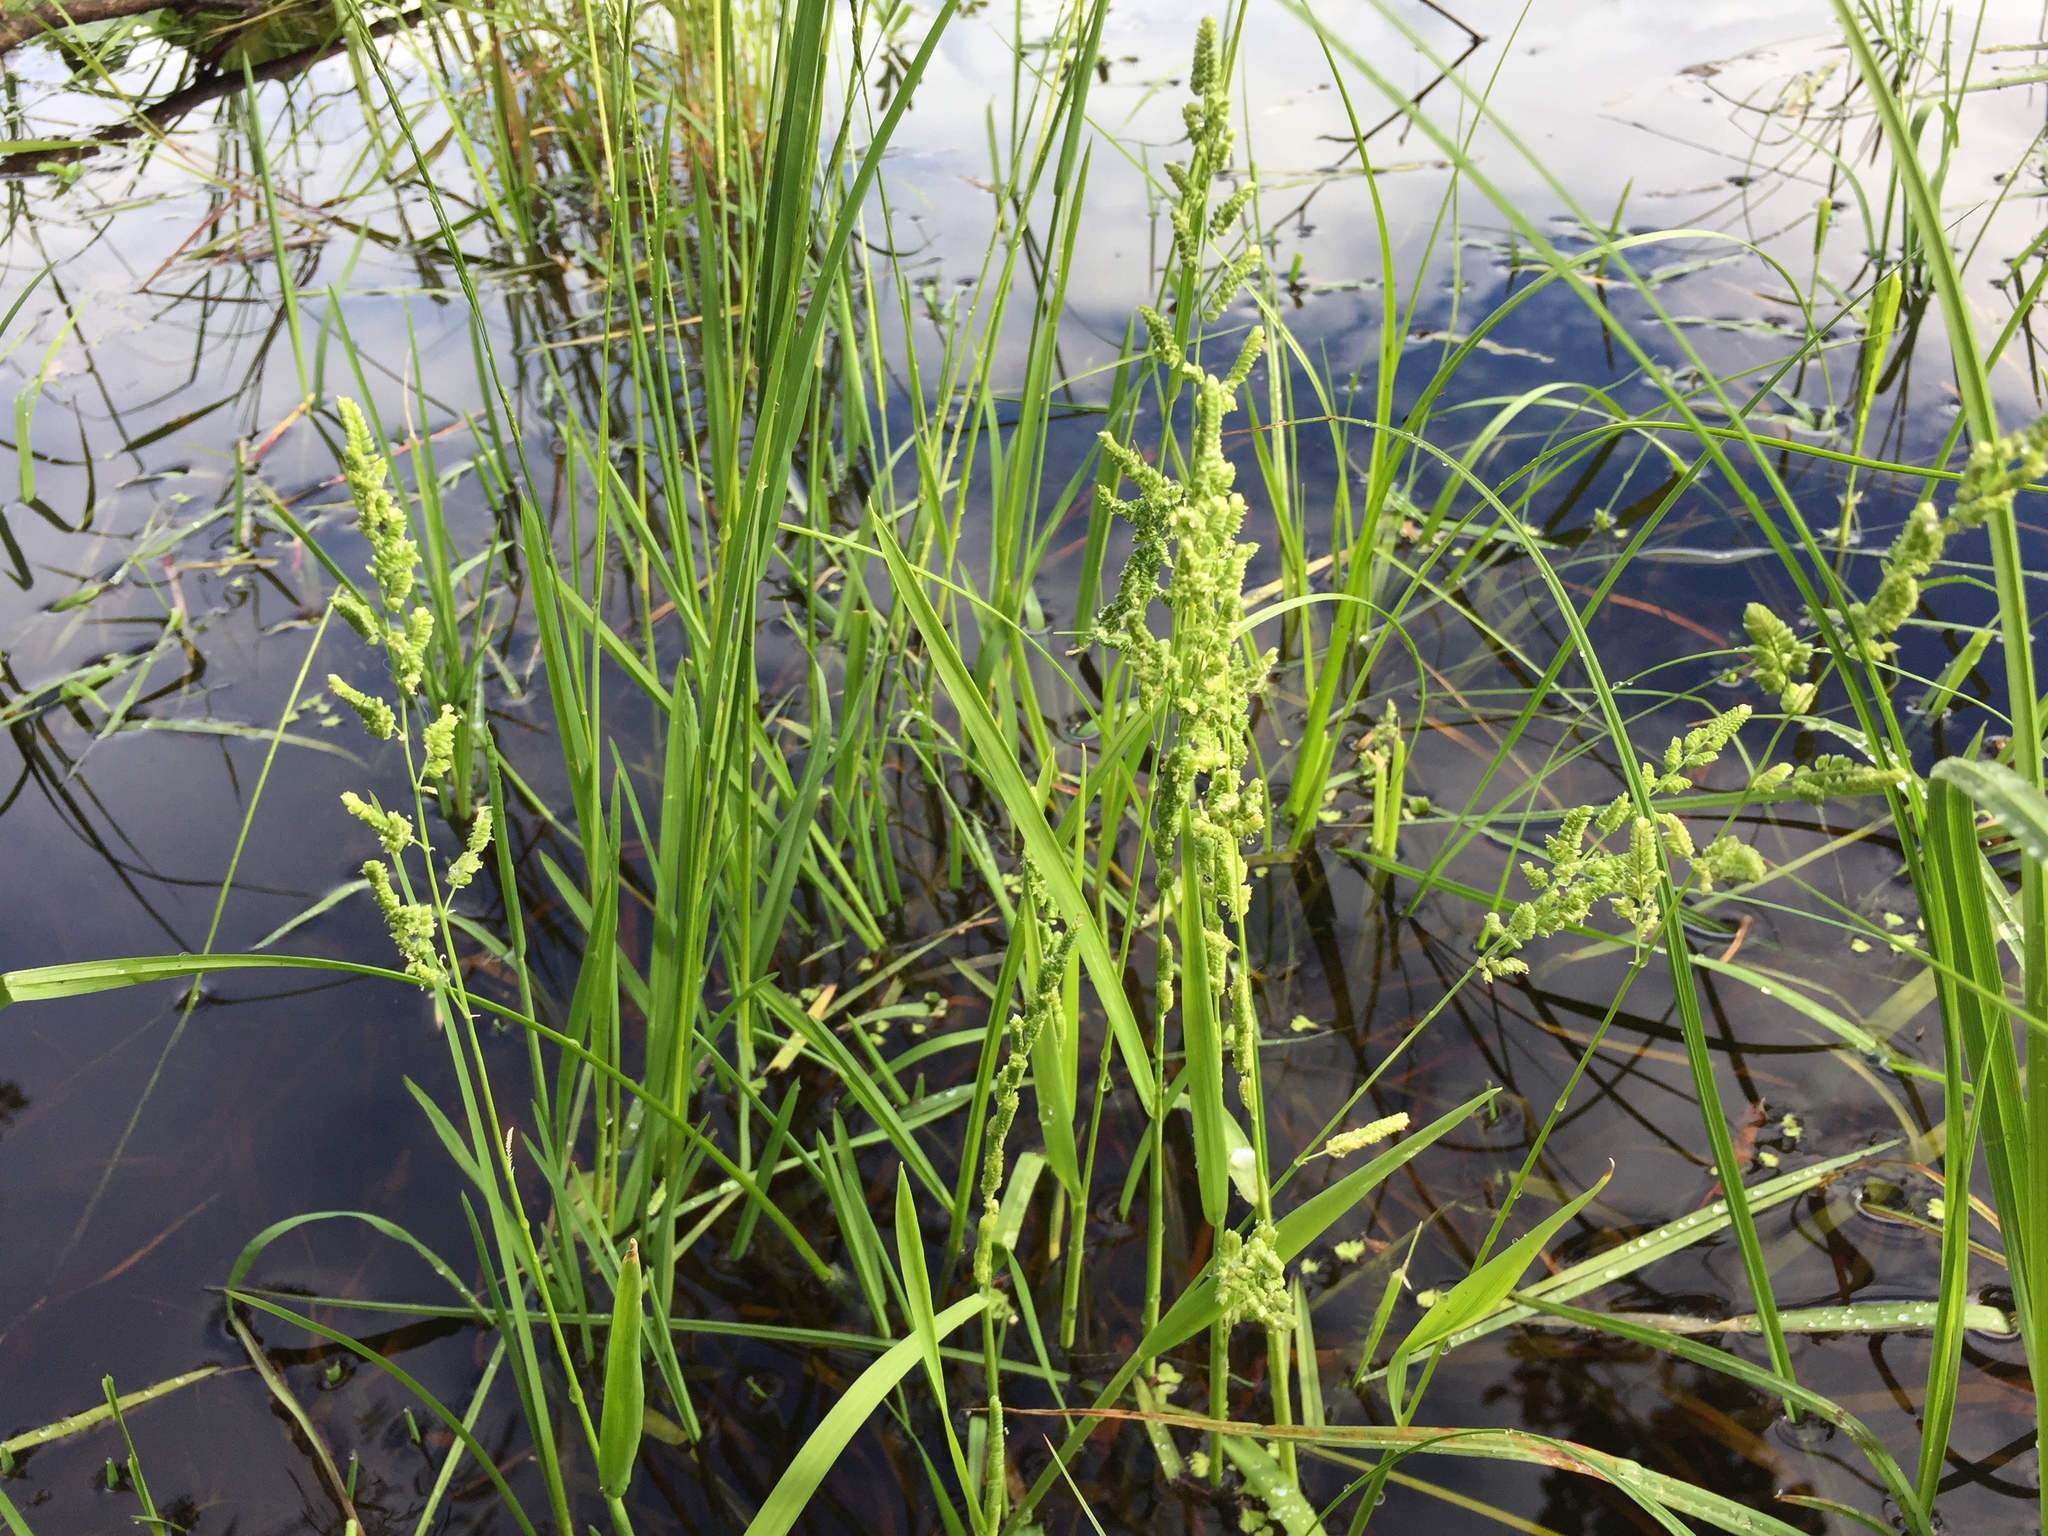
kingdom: Plantae
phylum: Tracheophyta
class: Liliopsida
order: Poales
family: Poaceae
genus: Beckmannia
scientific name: Beckmannia syzigachne
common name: American slough-grass
